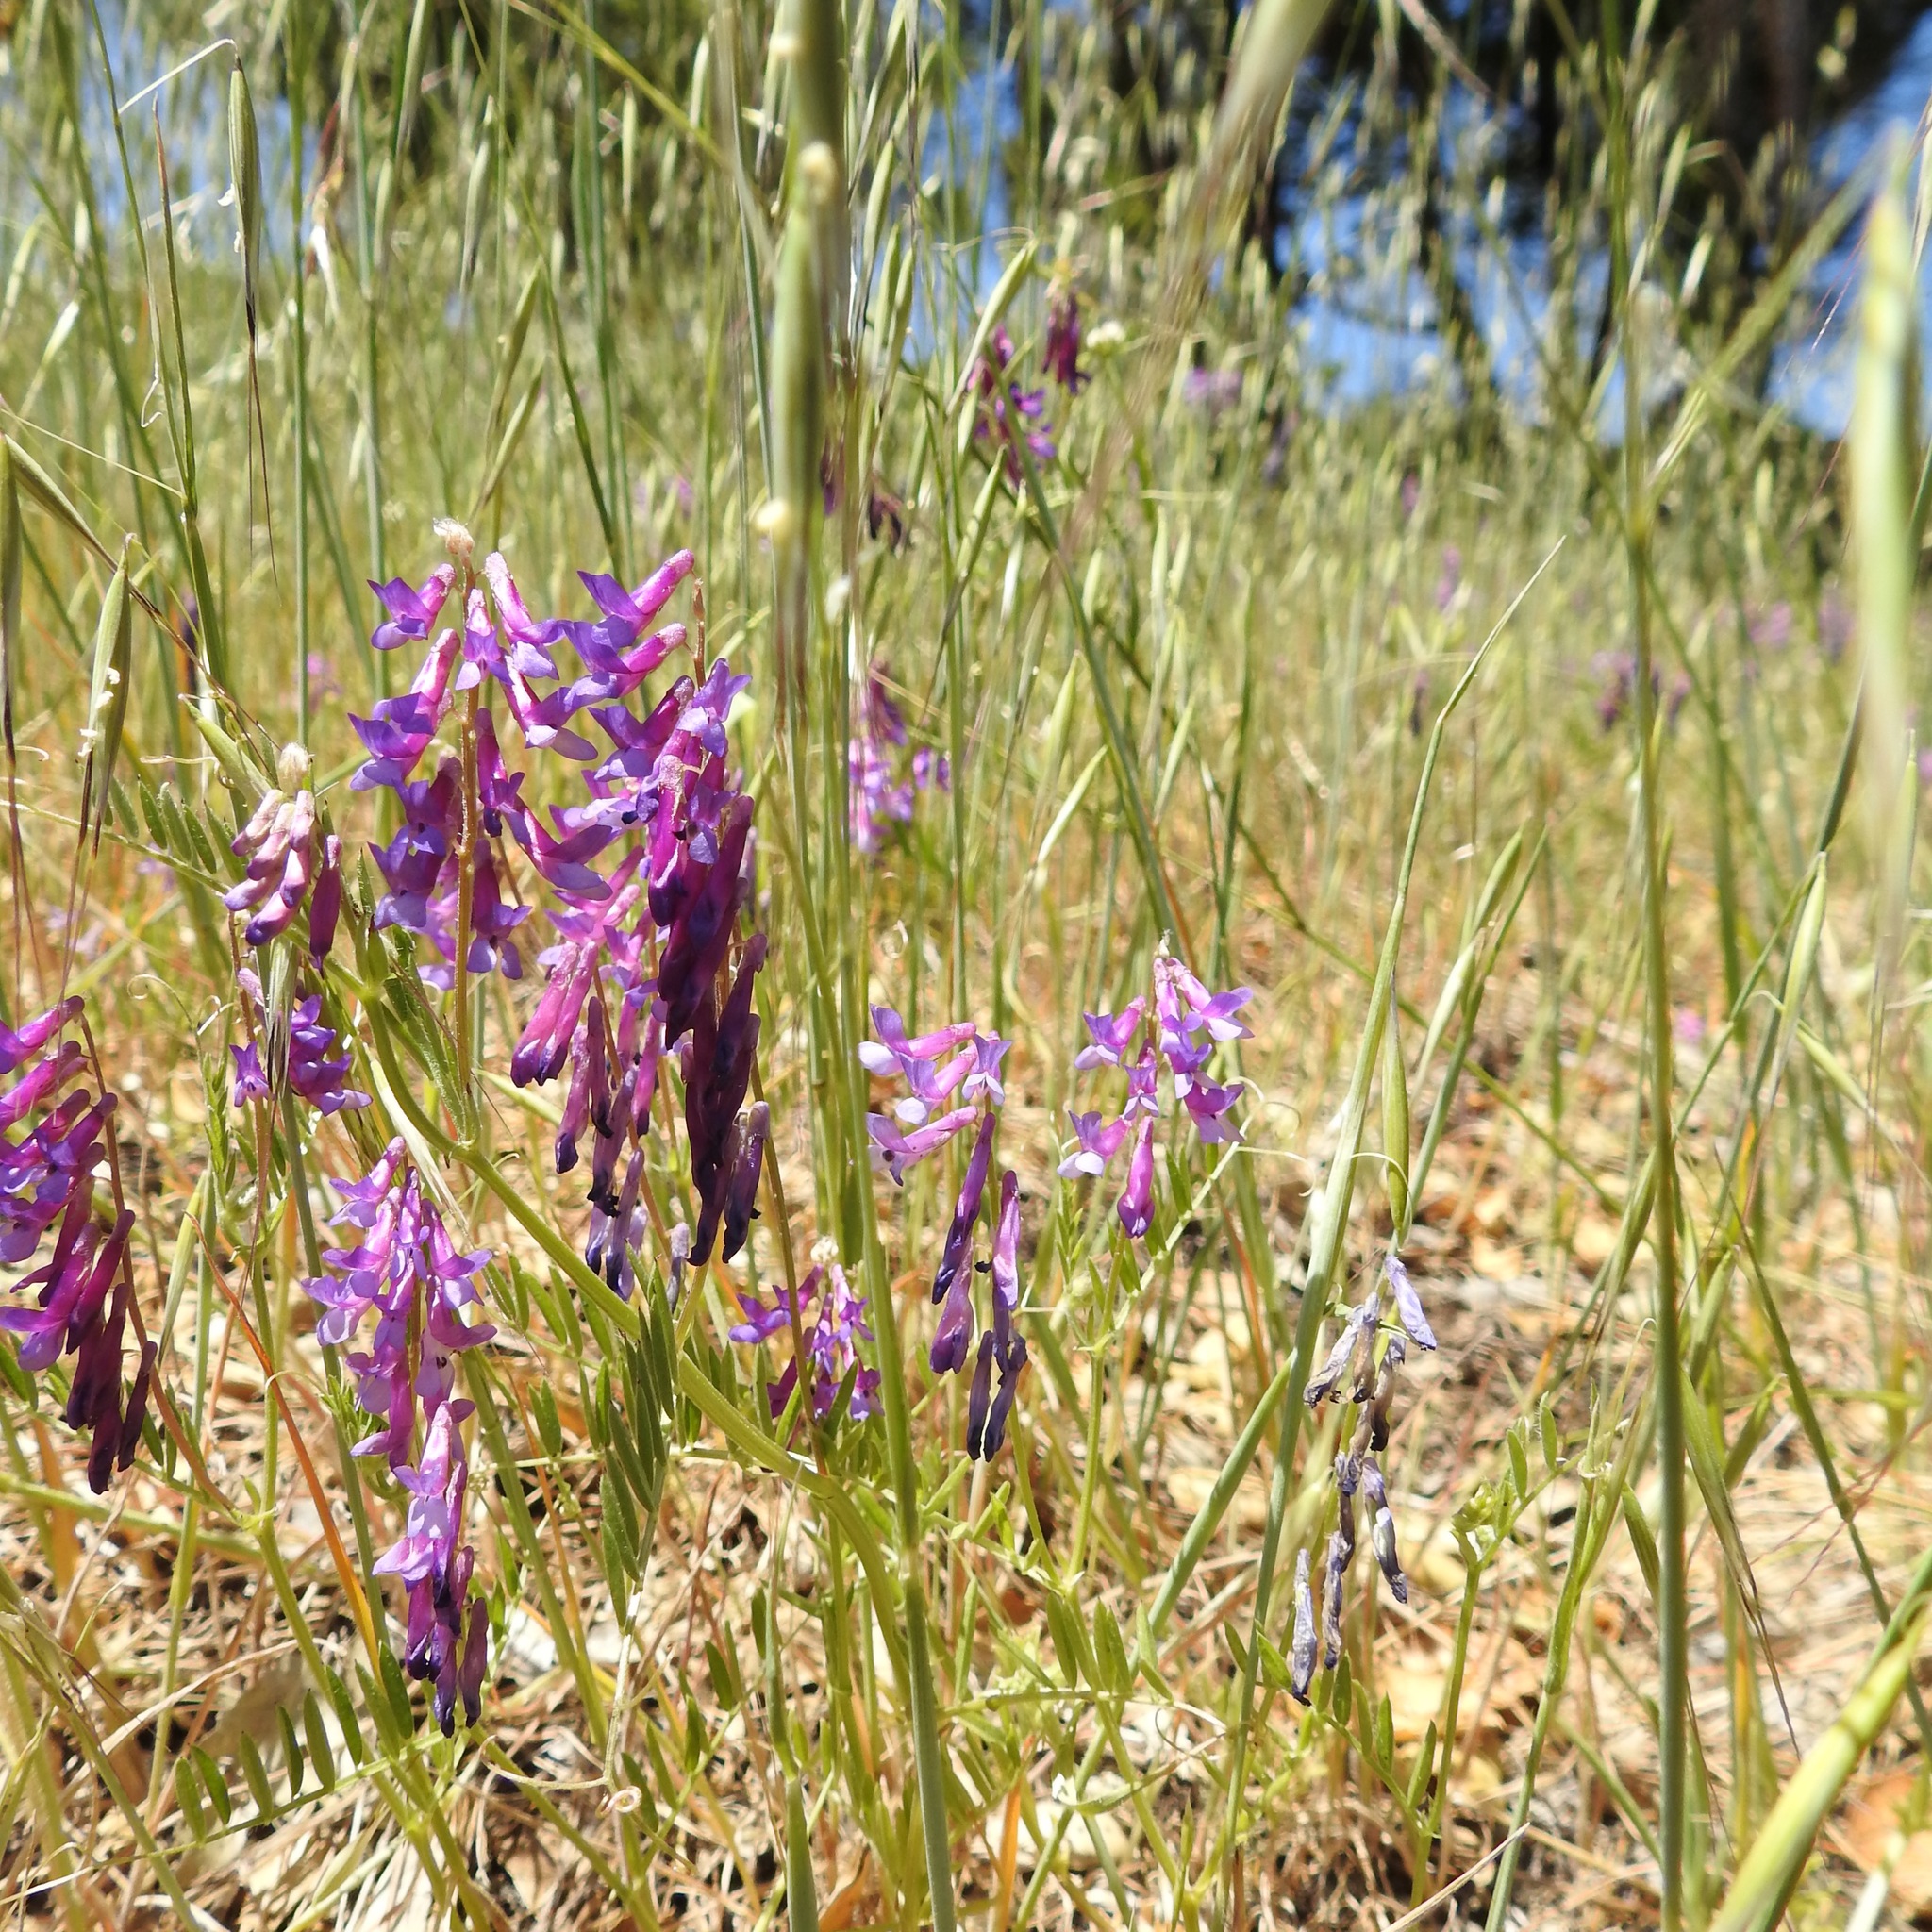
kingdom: Plantae
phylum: Tracheophyta
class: Magnoliopsida
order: Fabales
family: Fabaceae
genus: Vicia
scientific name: Vicia villosa
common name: Fodder vetch
